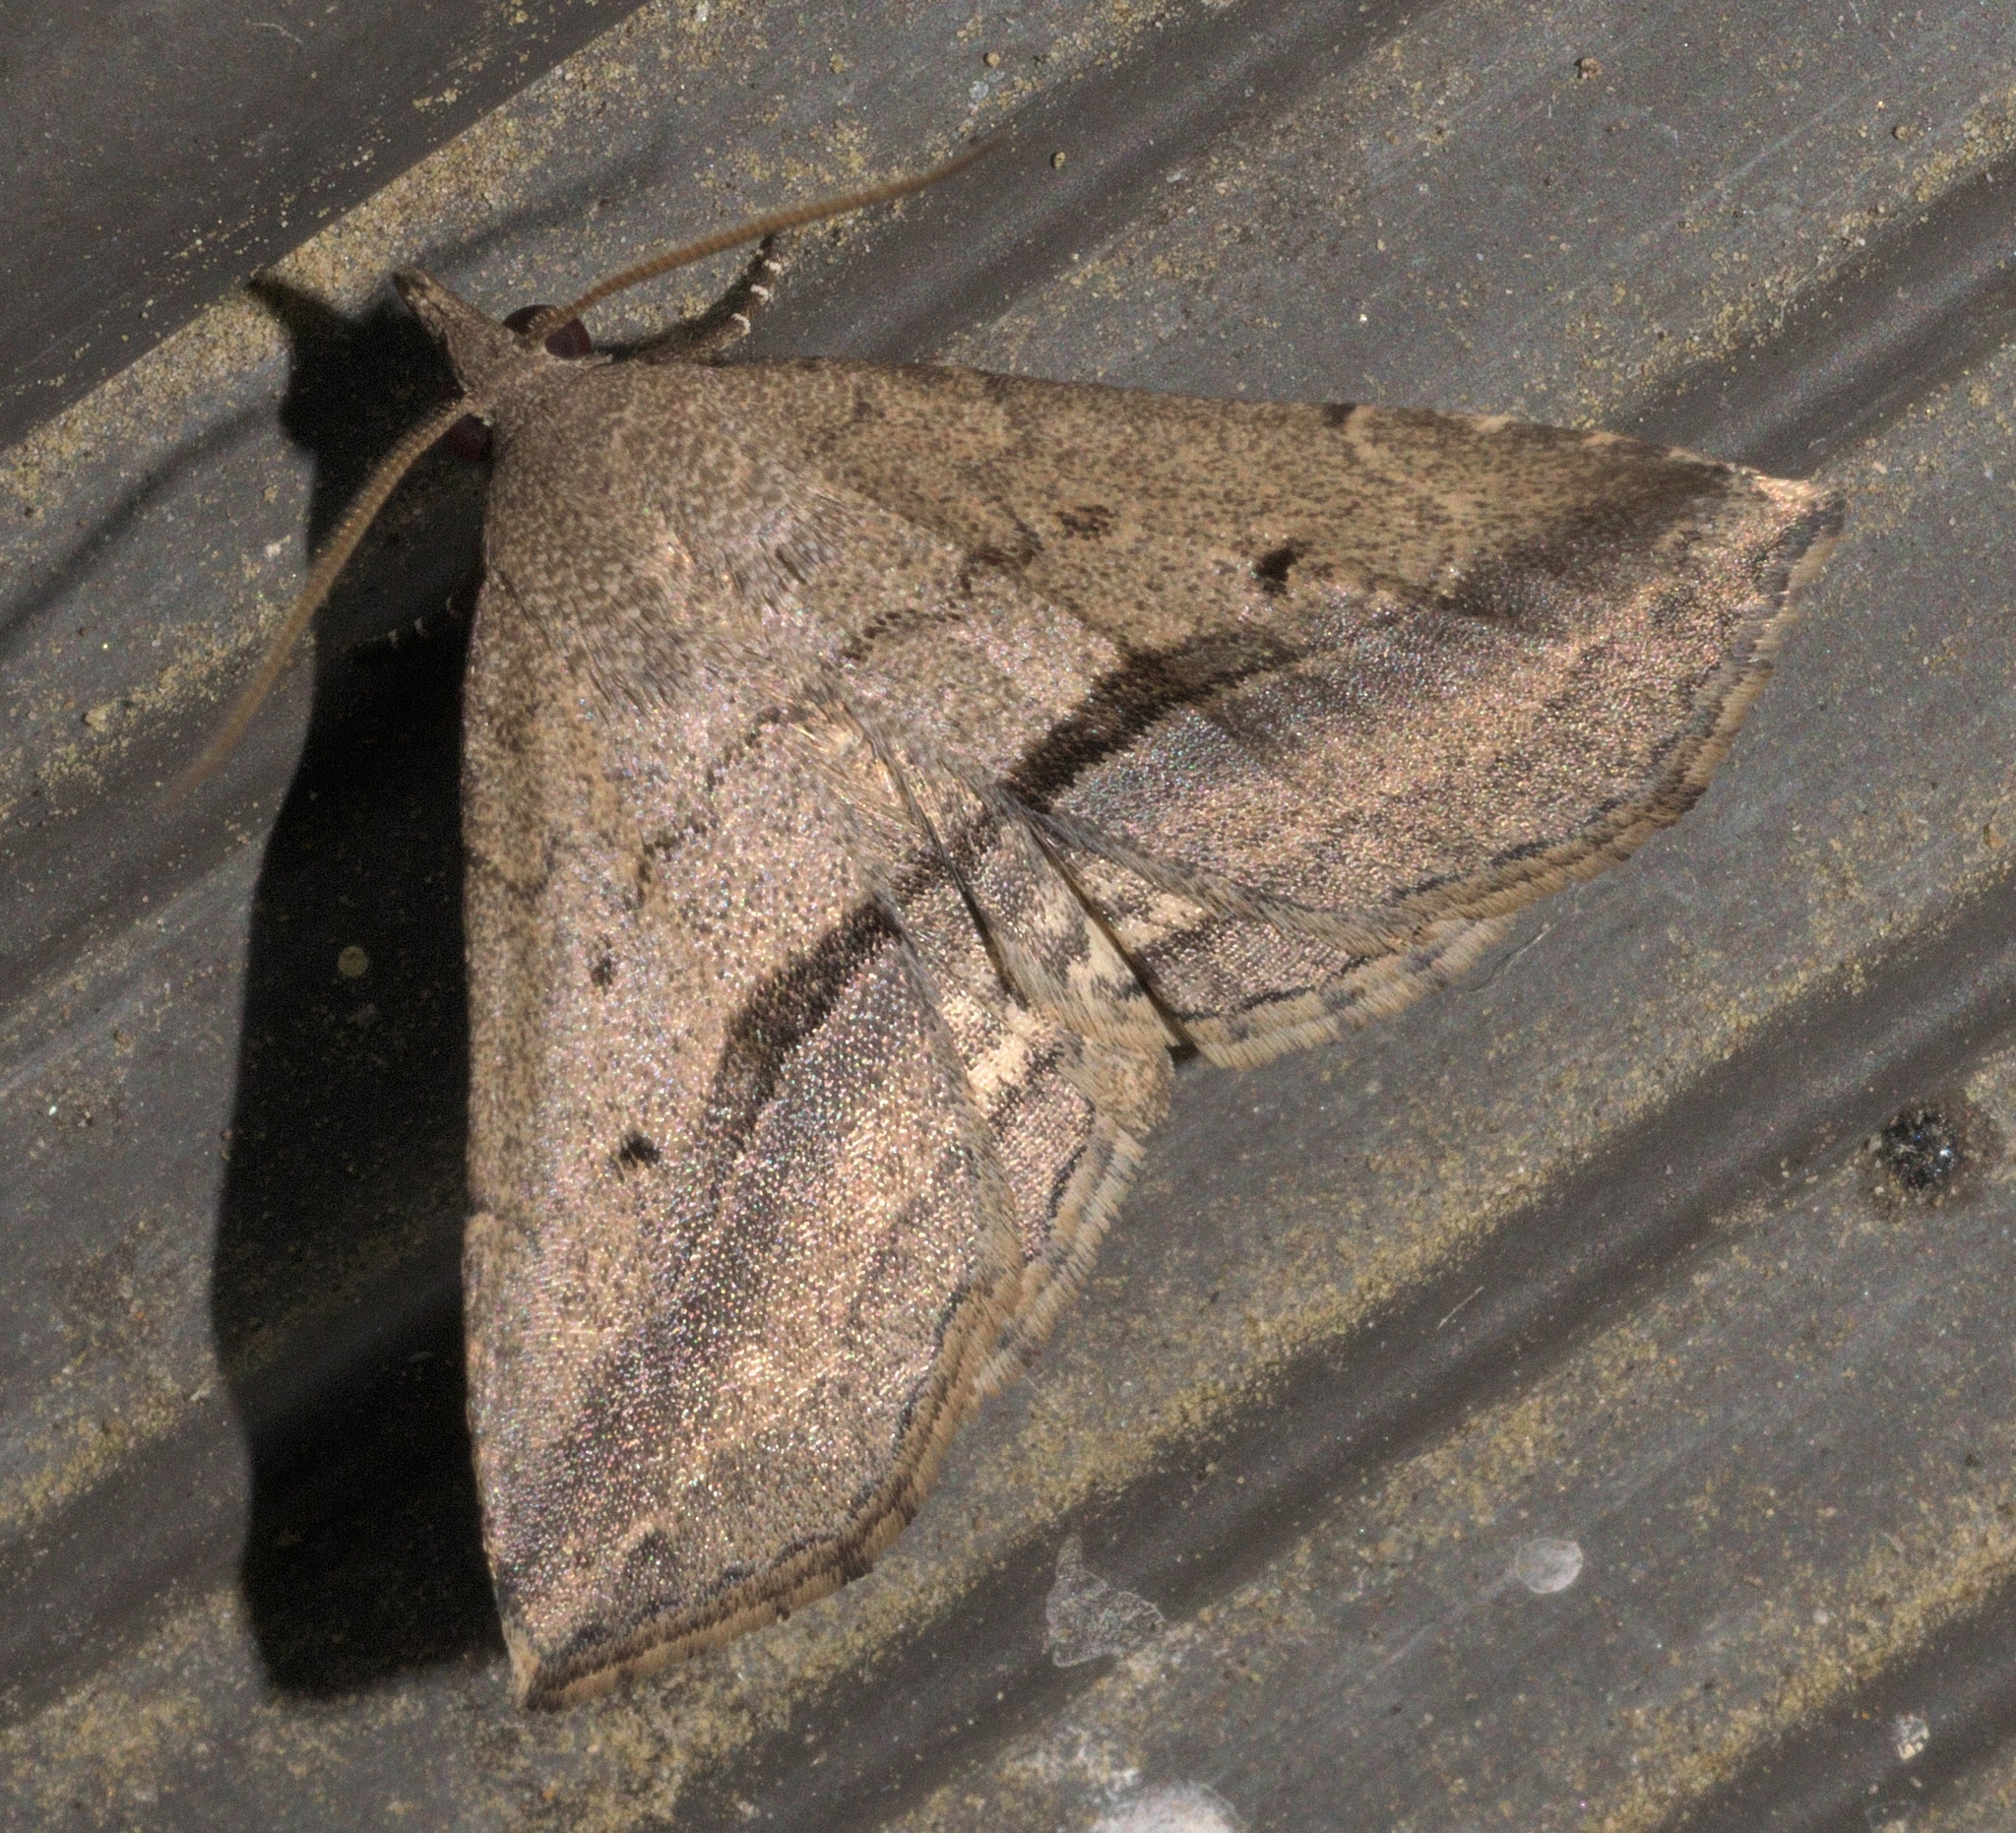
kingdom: Animalia
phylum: Arthropoda
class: Insecta
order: Lepidoptera
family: Erebidae
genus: Spargaloma
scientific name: Spargaloma perditalis
